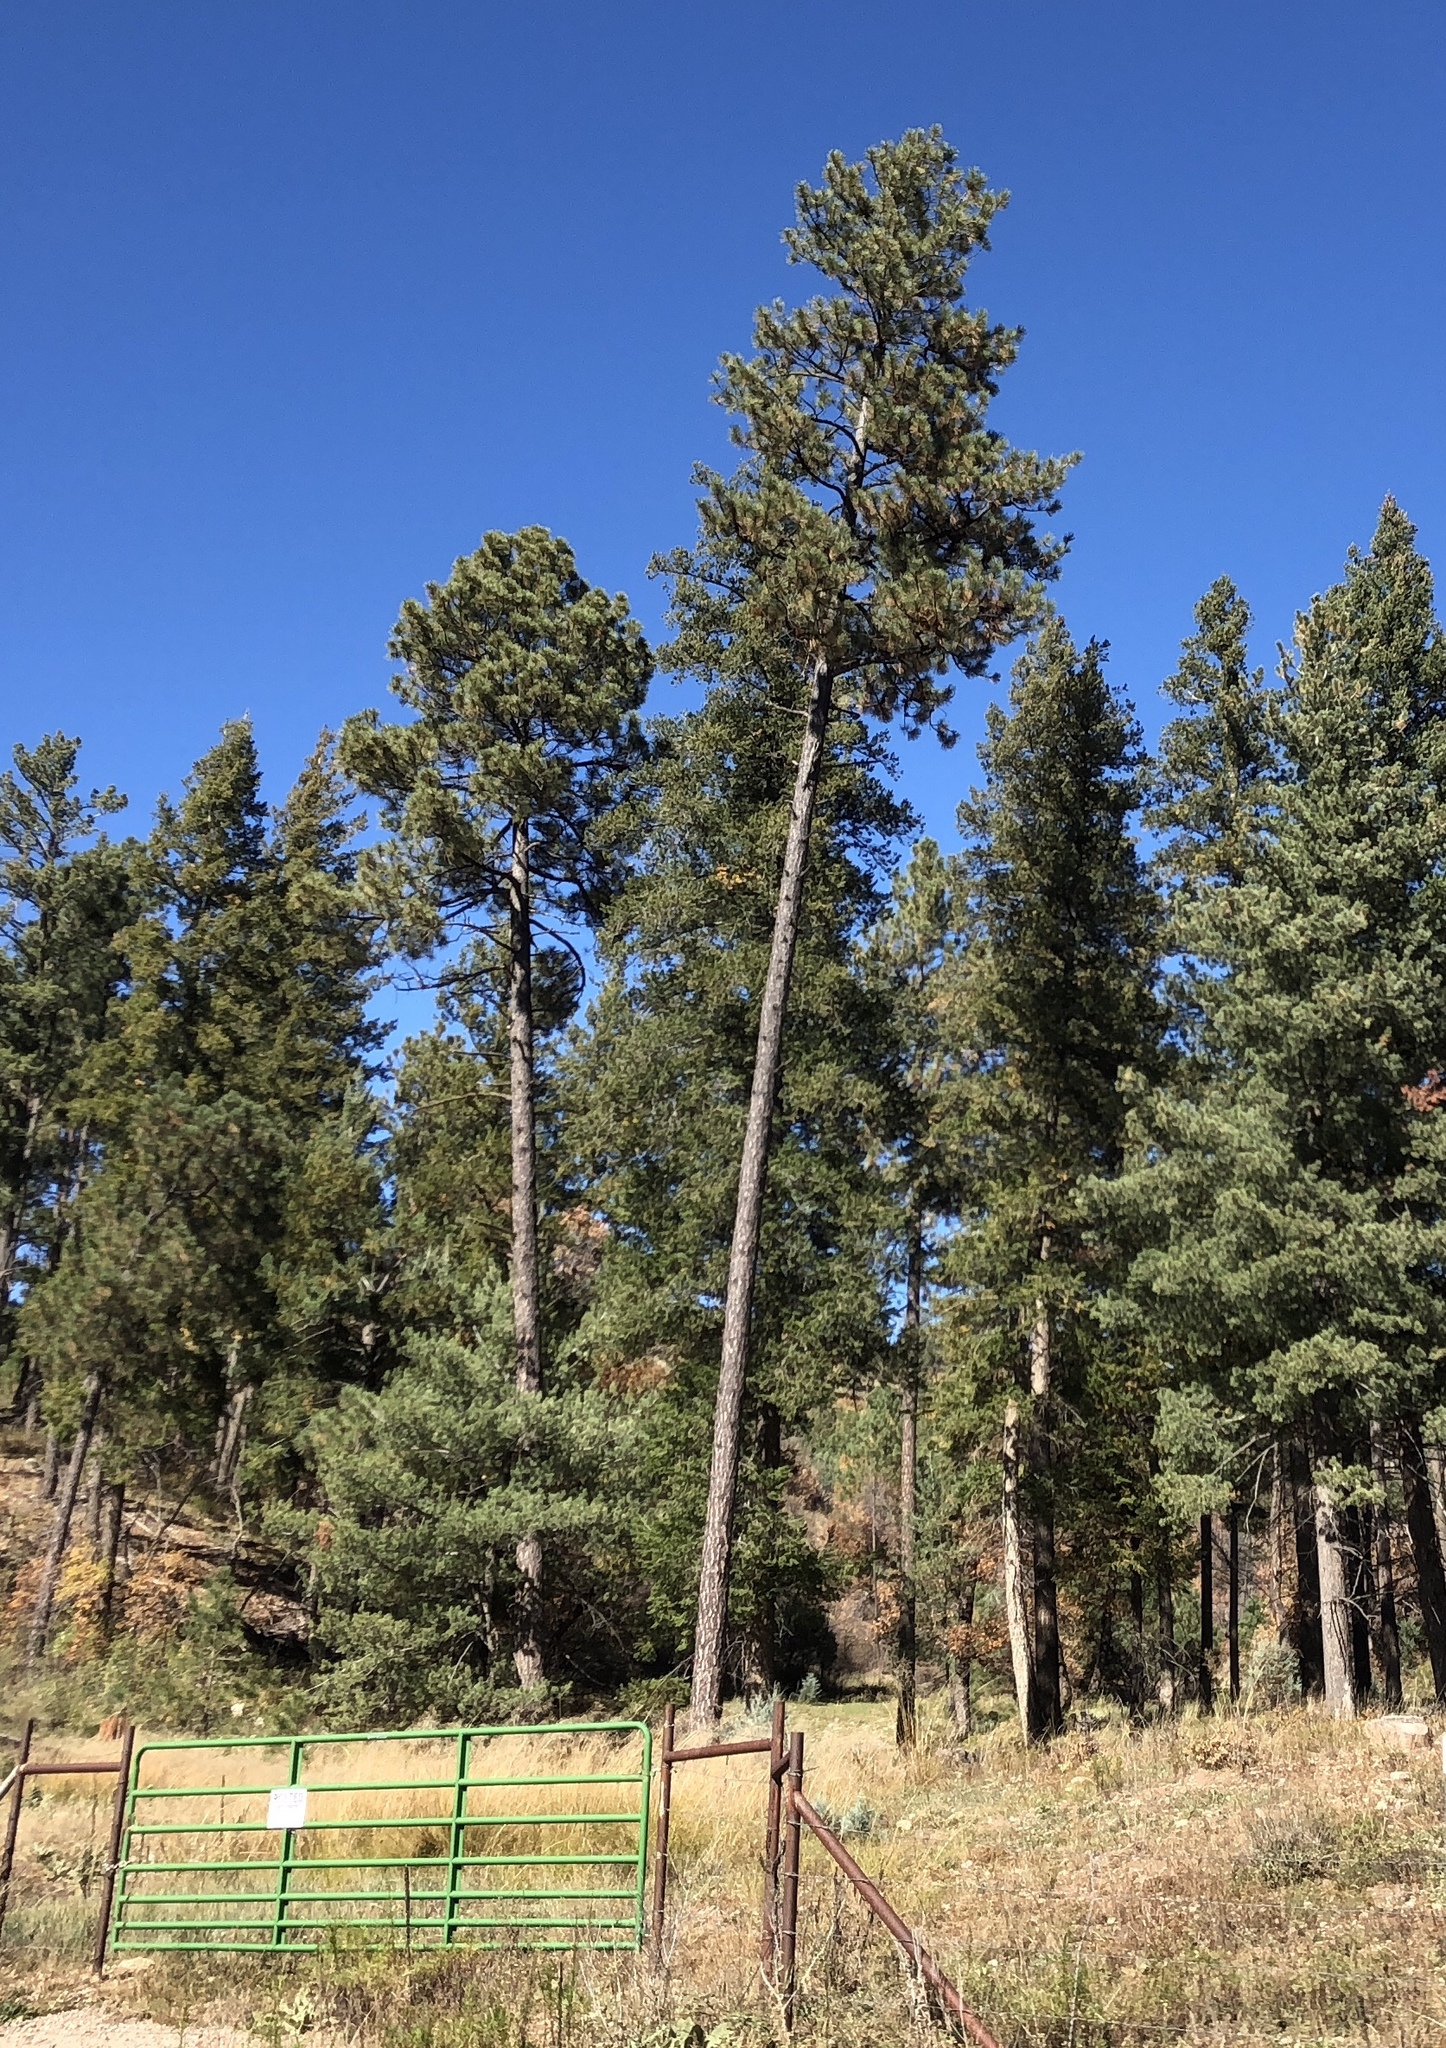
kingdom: Plantae
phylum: Tracheophyta
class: Pinopsida
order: Pinales
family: Pinaceae
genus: Pinus
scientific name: Pinus ponderosa
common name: Western yellow-pine
